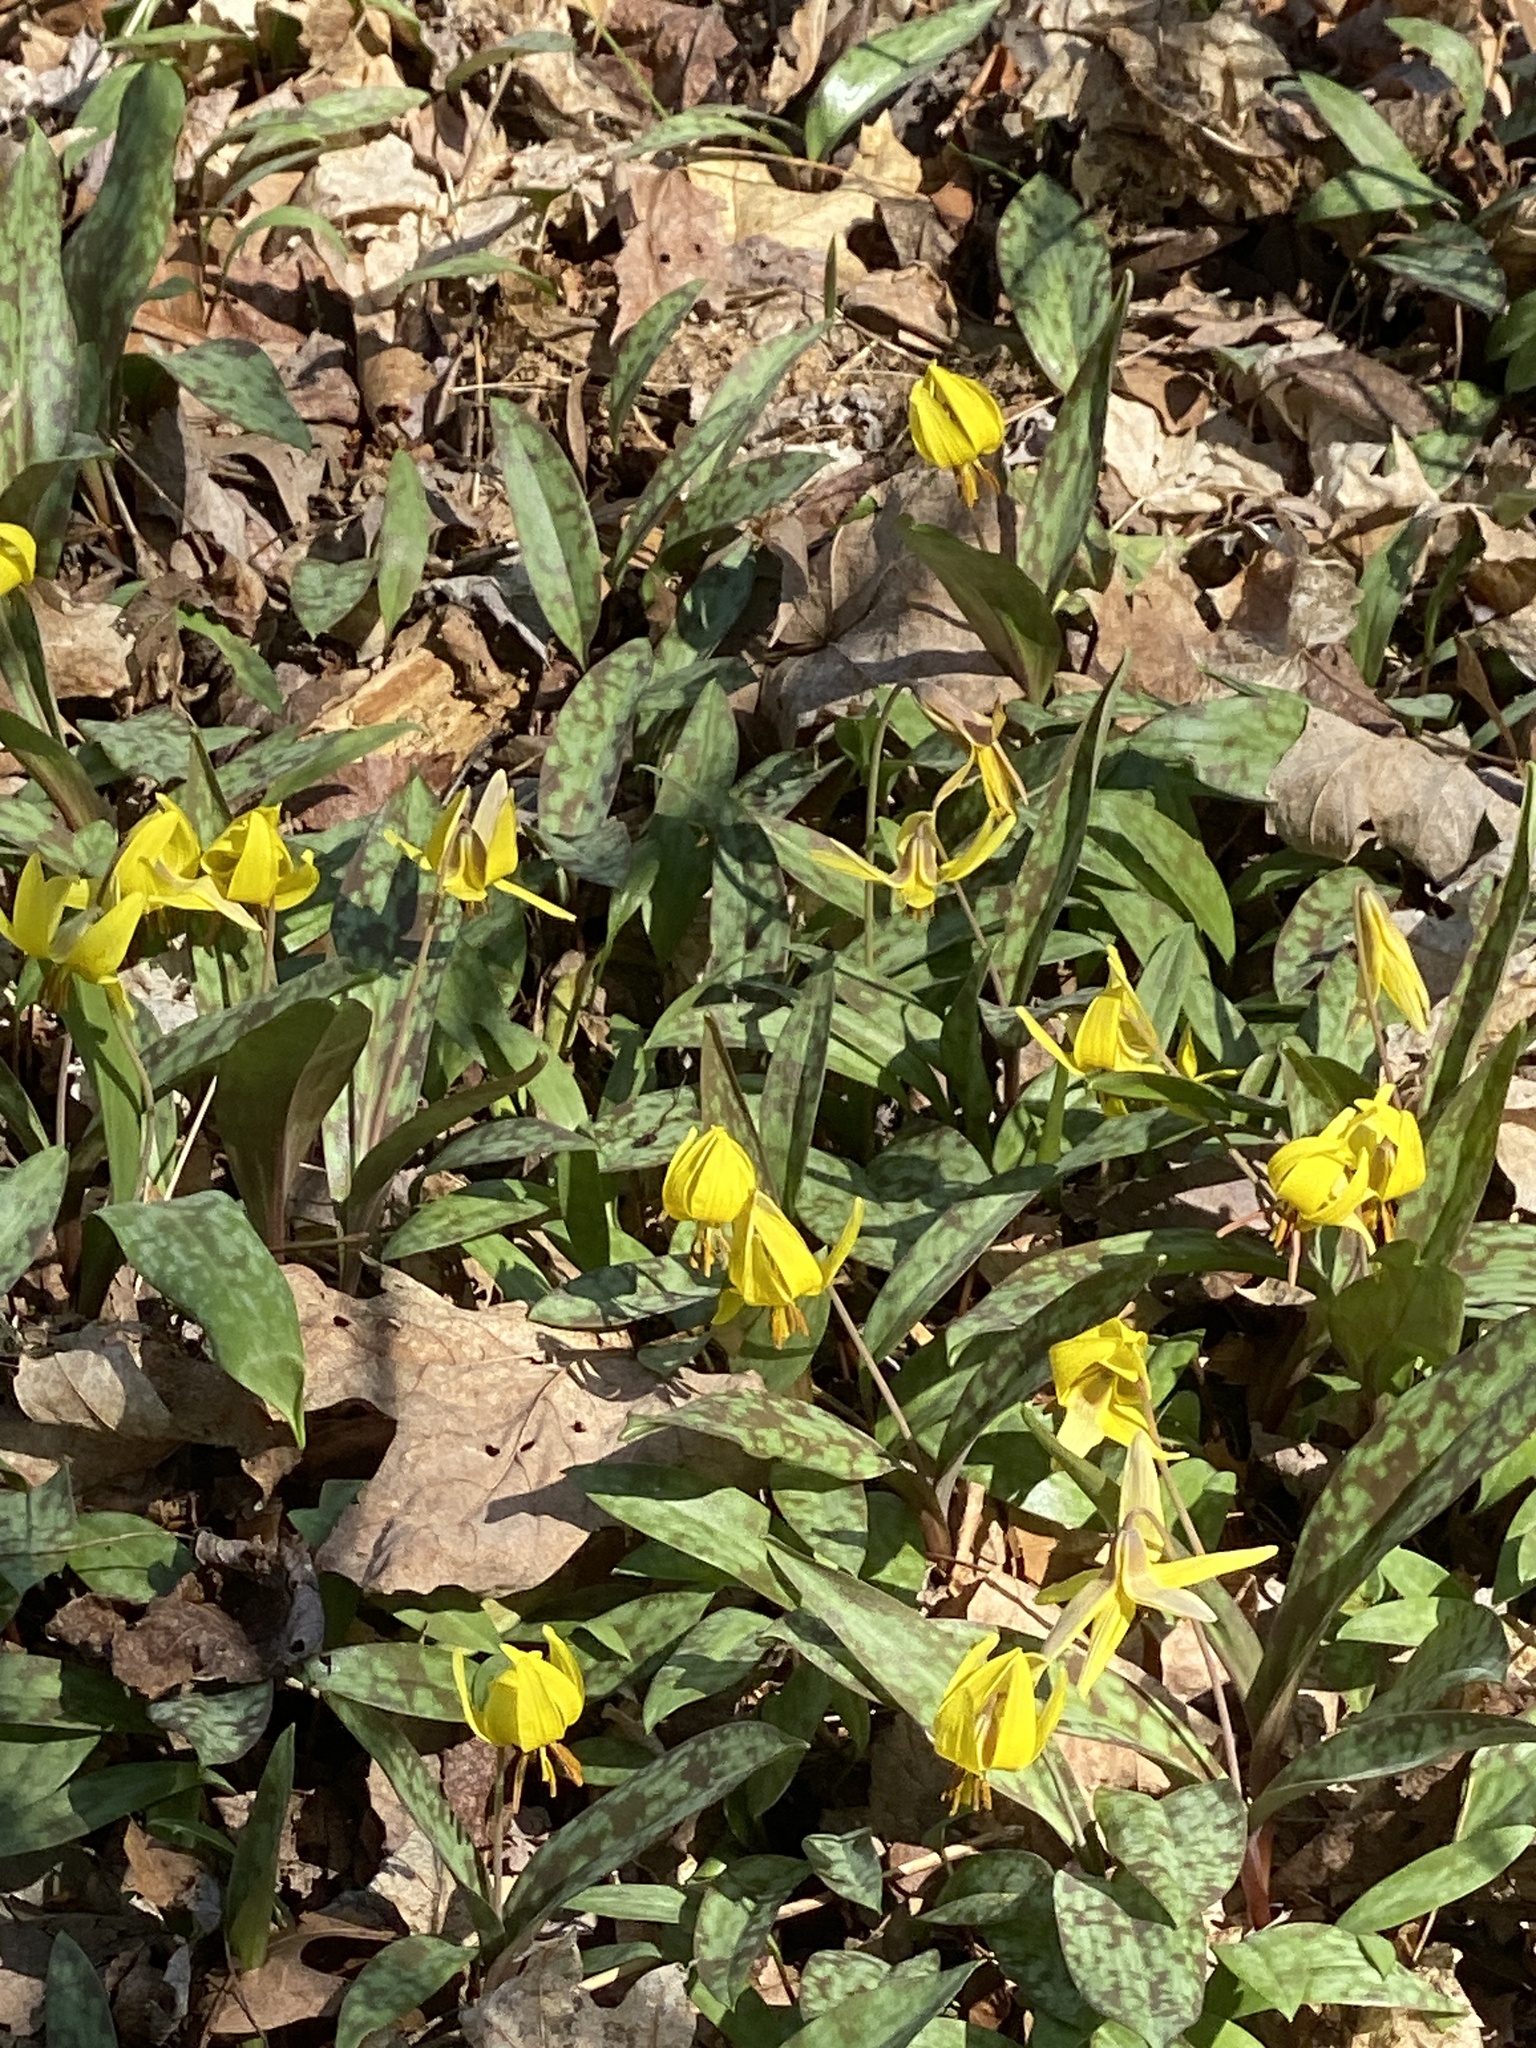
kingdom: Plantae
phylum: Tracheophyta
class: Liliopsida
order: Liliales
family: Liliaceae
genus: Erythronium
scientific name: Erythronium americanum
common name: Yellow adder's-tongue
